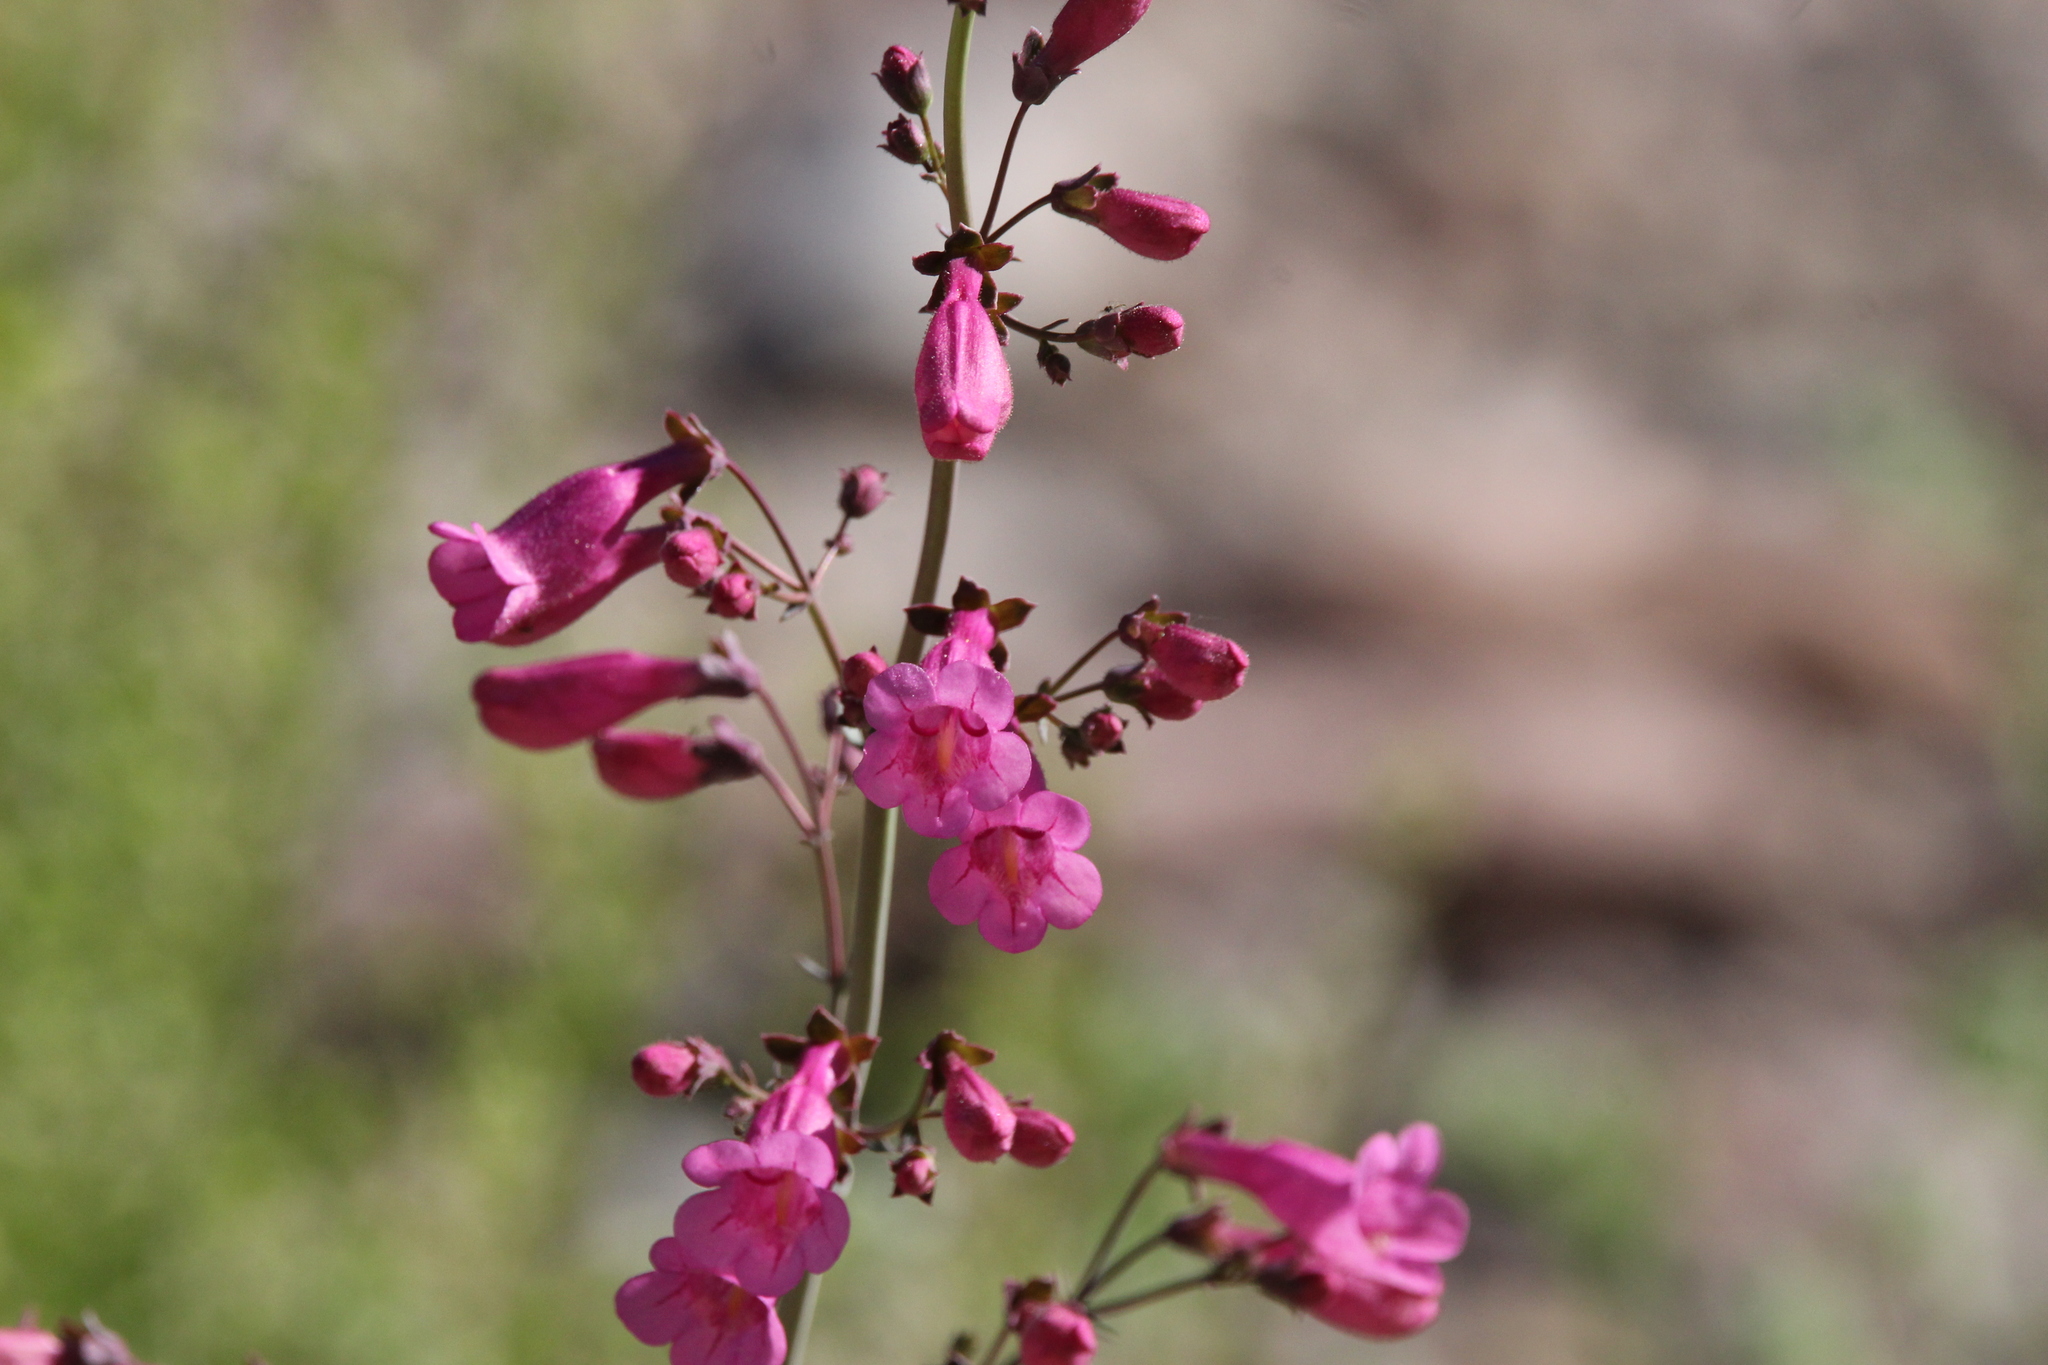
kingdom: Plantae
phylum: Tracheophyta
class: Magnoliopsida
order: Lamiales
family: Plantaginaceae
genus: Penstemon
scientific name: Penstemon parryi
